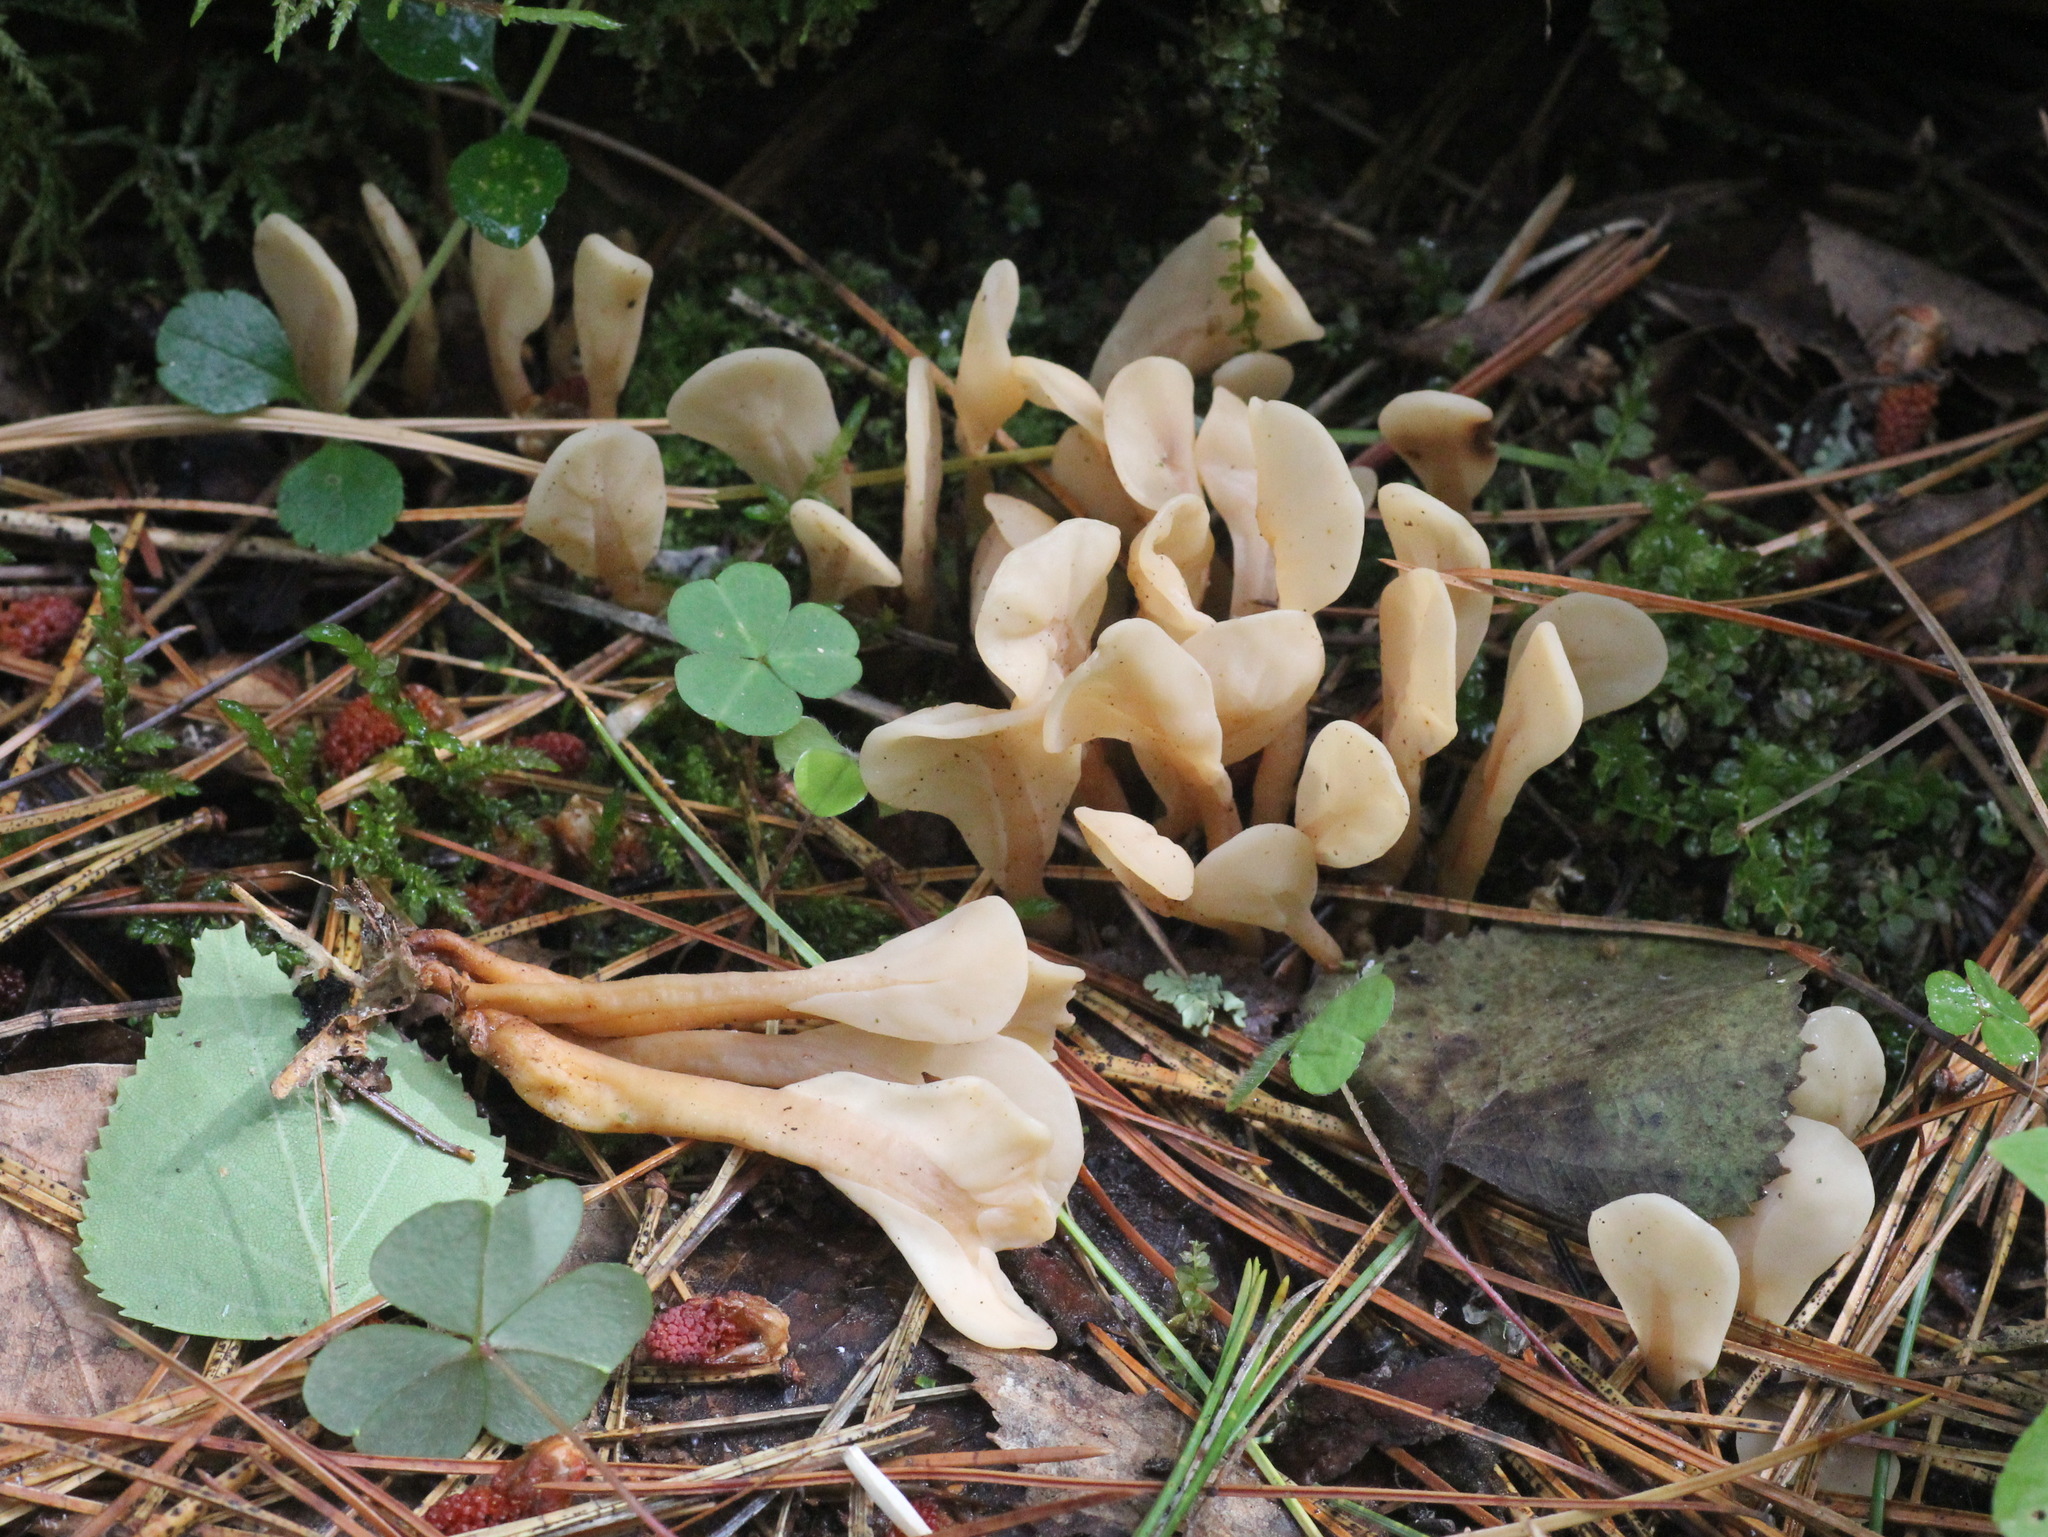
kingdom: Fungi
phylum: Ascomycota
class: Leotiomycetes
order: Rhytismatales
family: Cudoniaceae
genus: Spathularia
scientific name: Spathularia rufa
